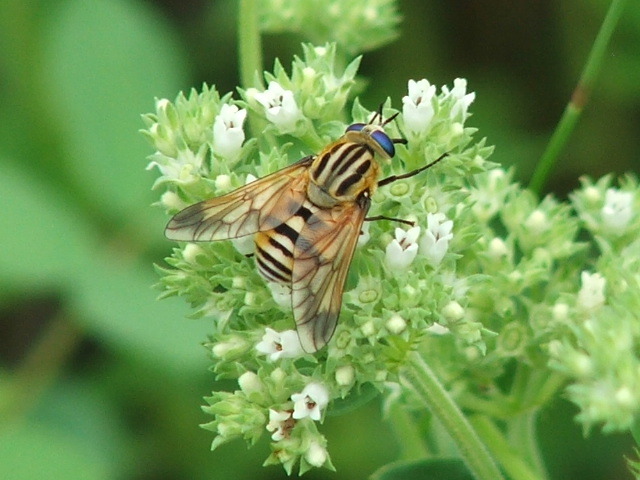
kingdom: Animalia
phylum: Arthropoda
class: Insecta
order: Diptera
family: Tabanidae
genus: Philoliche
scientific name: Philoliche suavis
